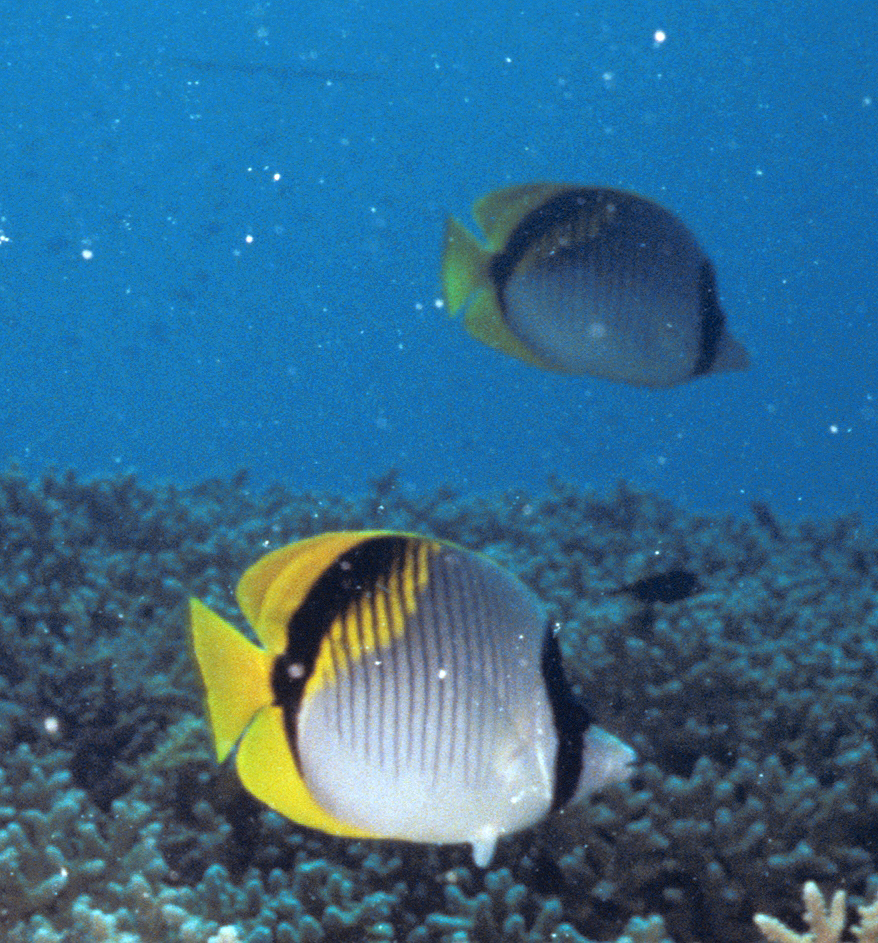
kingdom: Animalia
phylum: Chordata
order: Perciformes
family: Chaetodontidae
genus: Chaetodon
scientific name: Chaetodon lineolatus
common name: Lined butterflyfish
